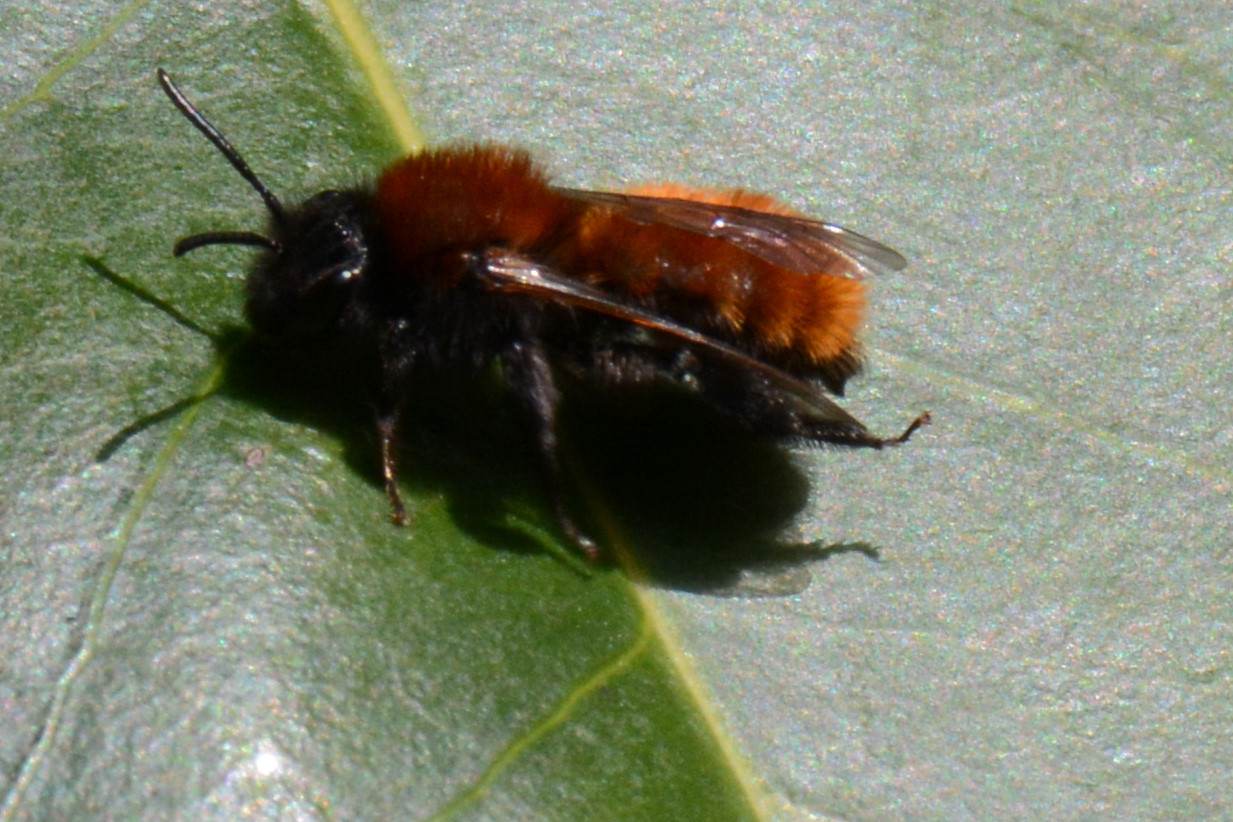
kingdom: Animalia
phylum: Arthropoda
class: Insecta
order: Hymenoptera
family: Andrenidae
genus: Andrena
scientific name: Andrena fulva
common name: Tawny mining bee
